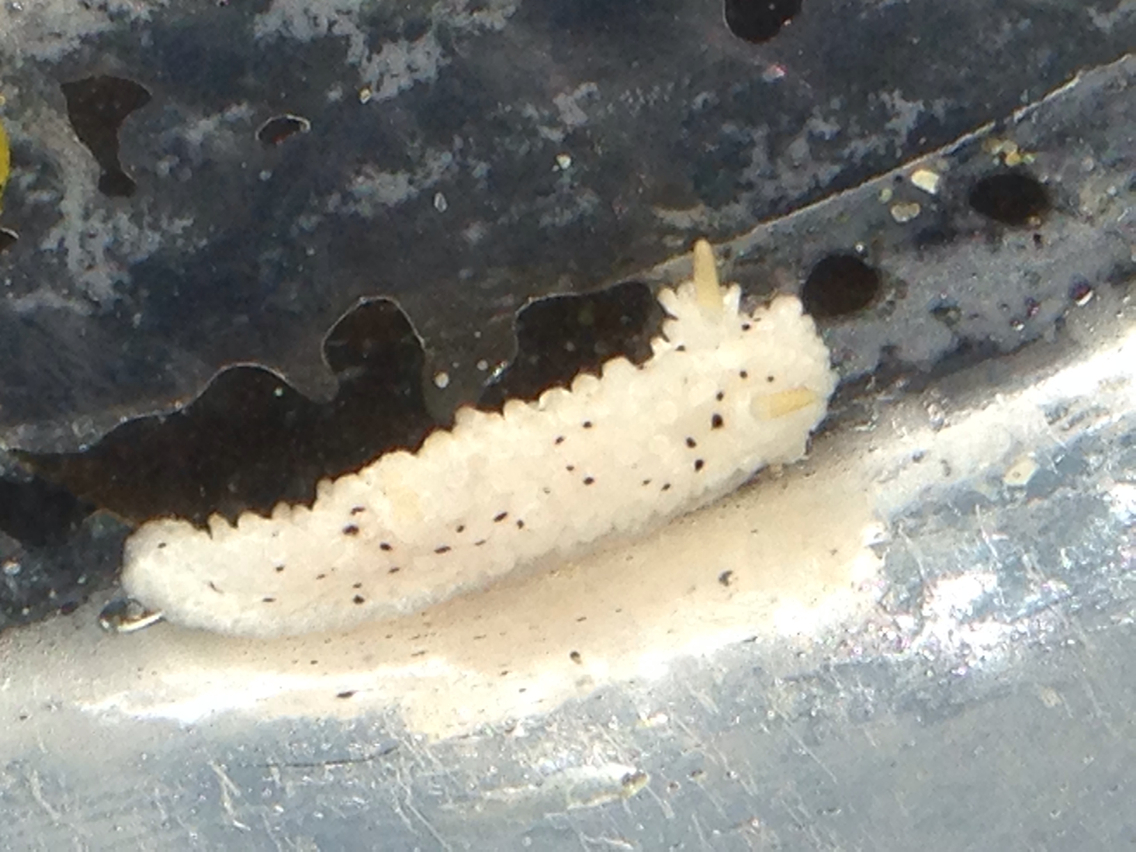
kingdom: Animalia
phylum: Mollusca
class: Gastropoda
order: Nudibranchia
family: Aegiridae
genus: Aegires
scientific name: Aegires albopunctatus
